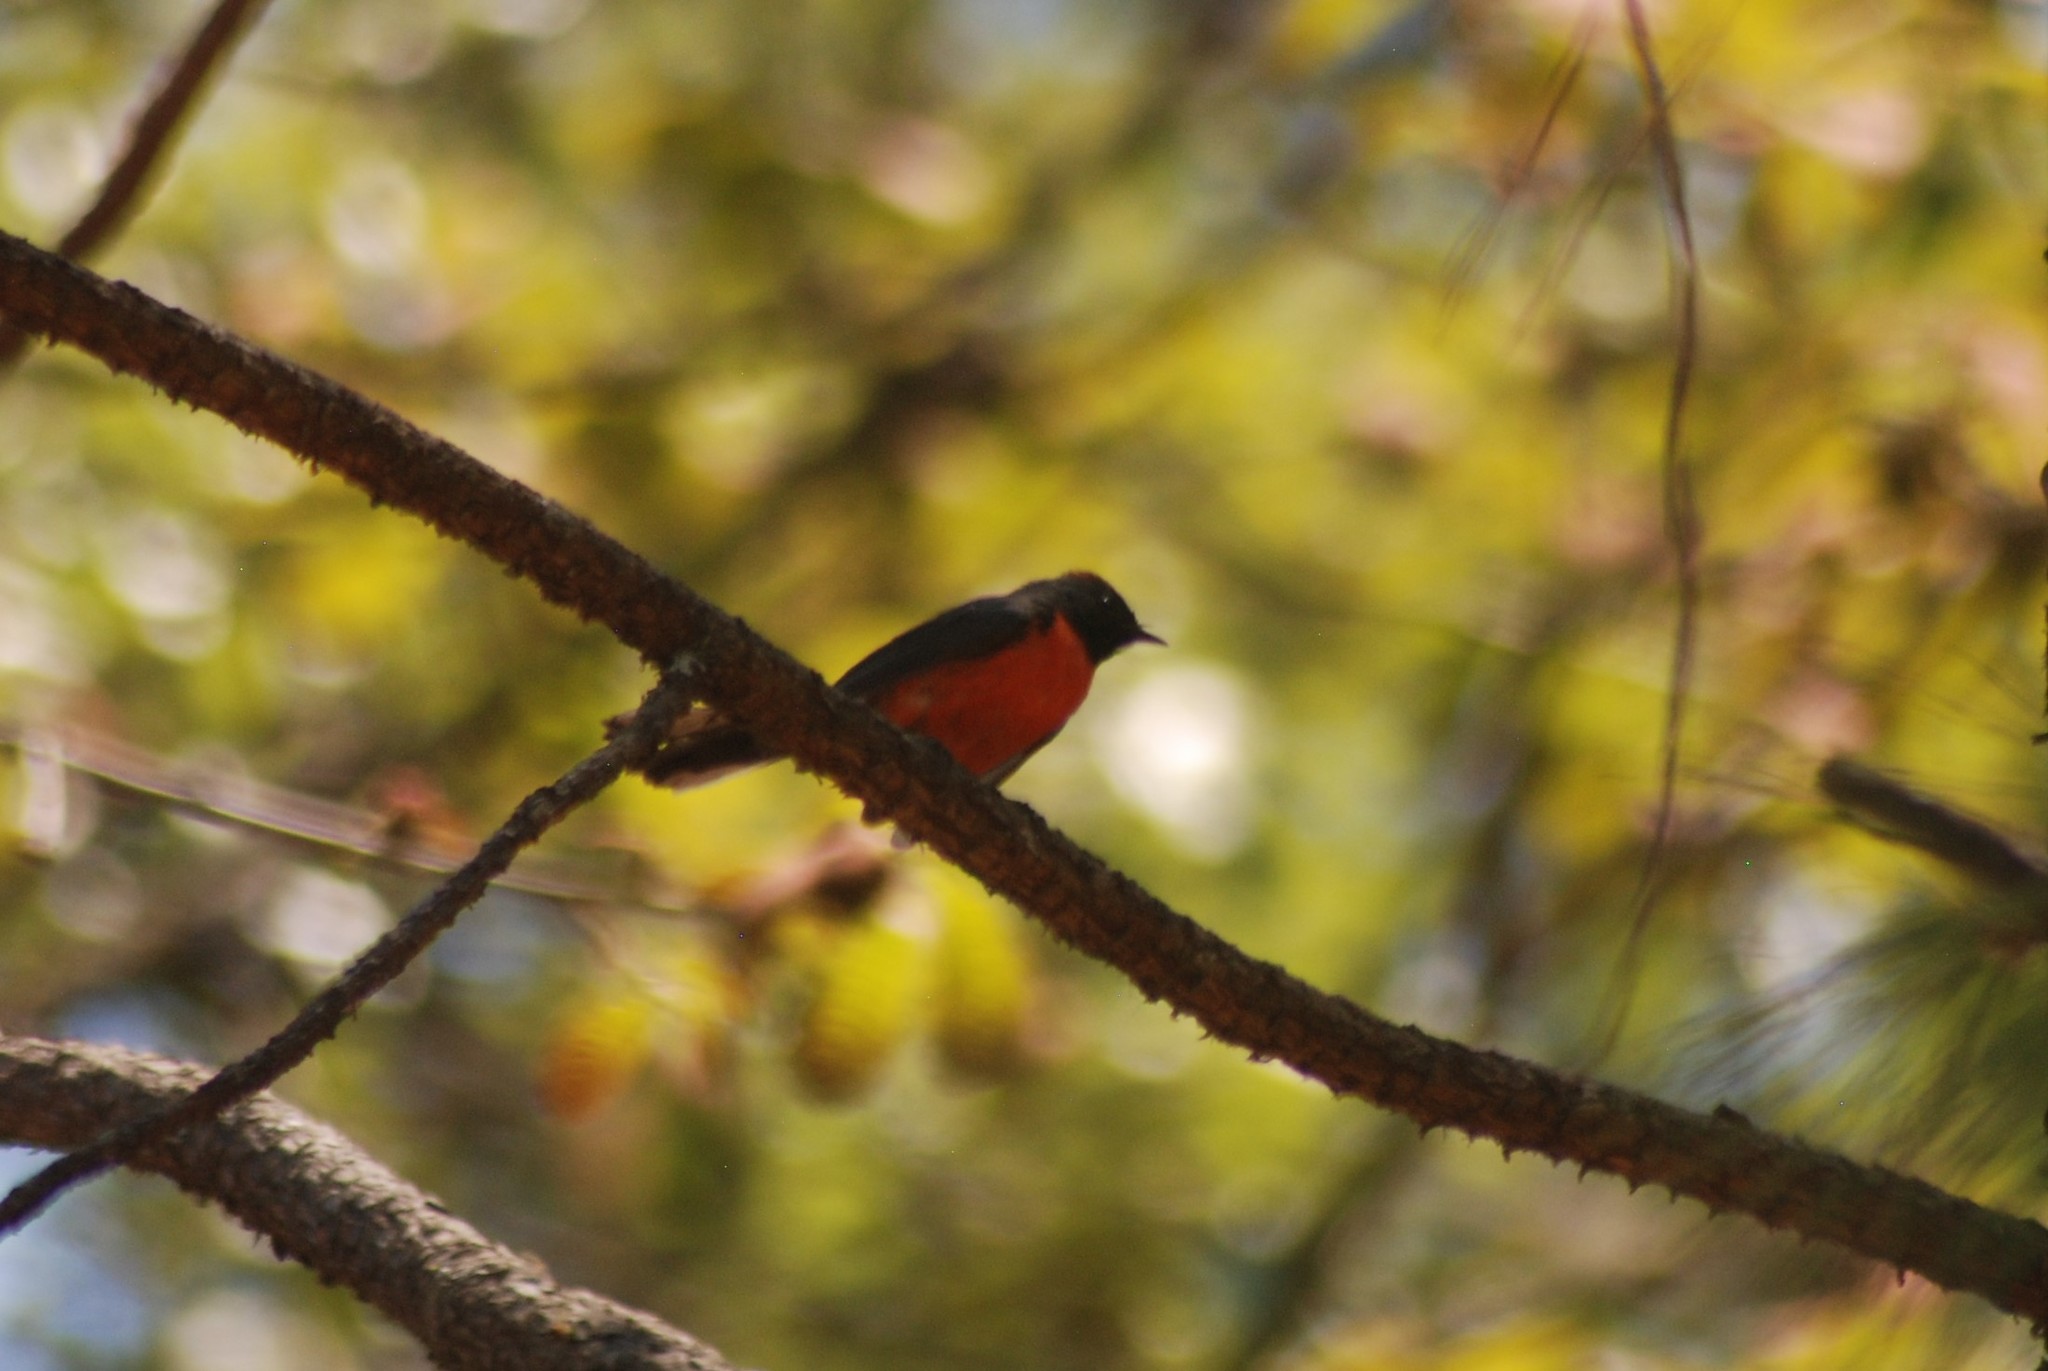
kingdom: Animalia
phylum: Chordata
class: Aves
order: Passeriformes
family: Parulidae
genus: Myioborus
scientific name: Myioborus miniatus
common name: Slate-throated redstart
